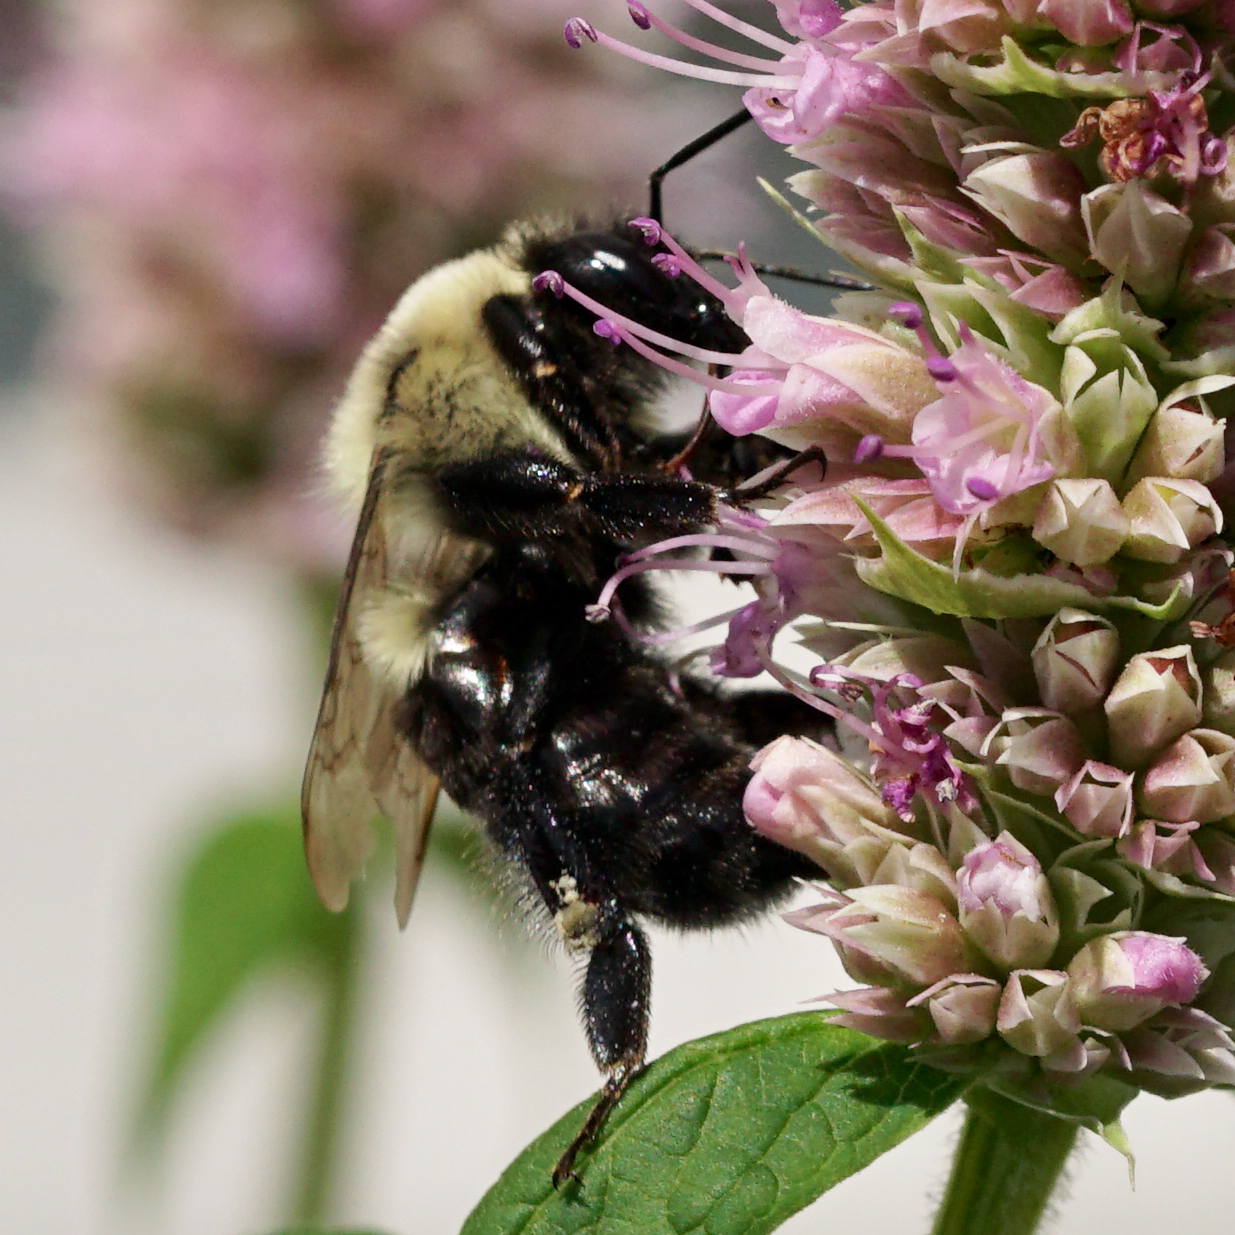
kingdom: Animalia
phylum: Arthropoda
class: Insecta
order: Hymenoptera
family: Apidae
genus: Bombus
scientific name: Bombus impatiens
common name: Common eastern bumble bee
